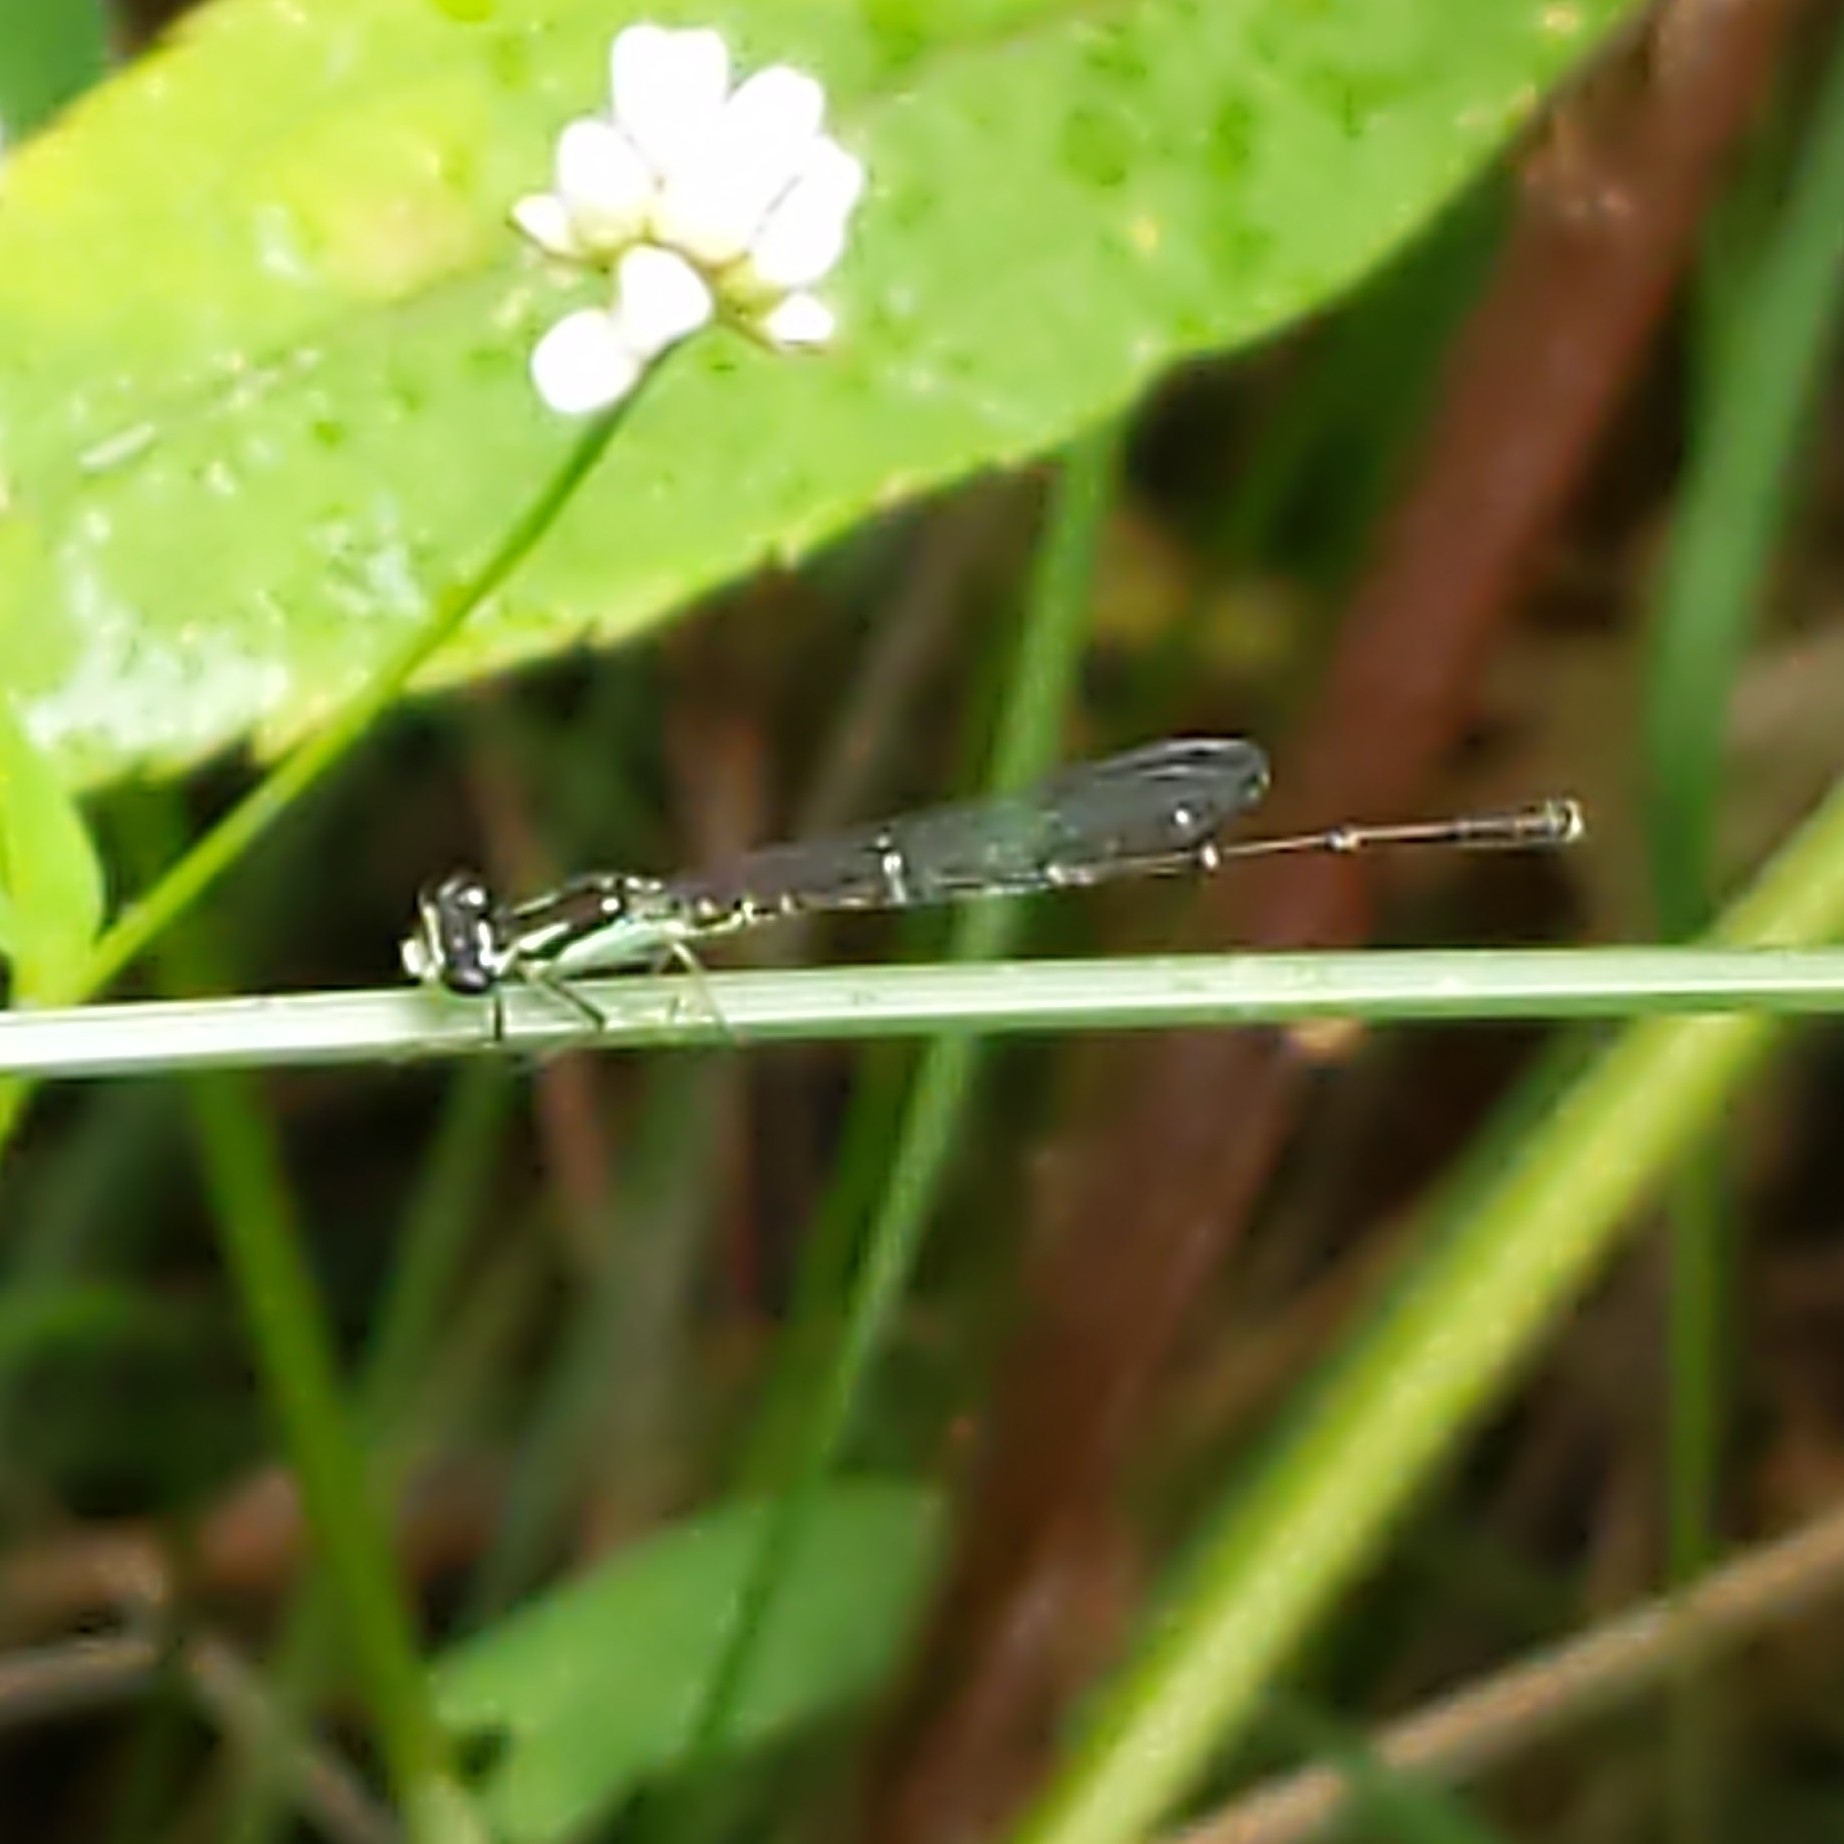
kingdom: Animalia
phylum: Arthropoda
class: Insecta
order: Odonata
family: Coenagrionidae
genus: Ischnura
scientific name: Ischnura posita
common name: Fragile forktail
